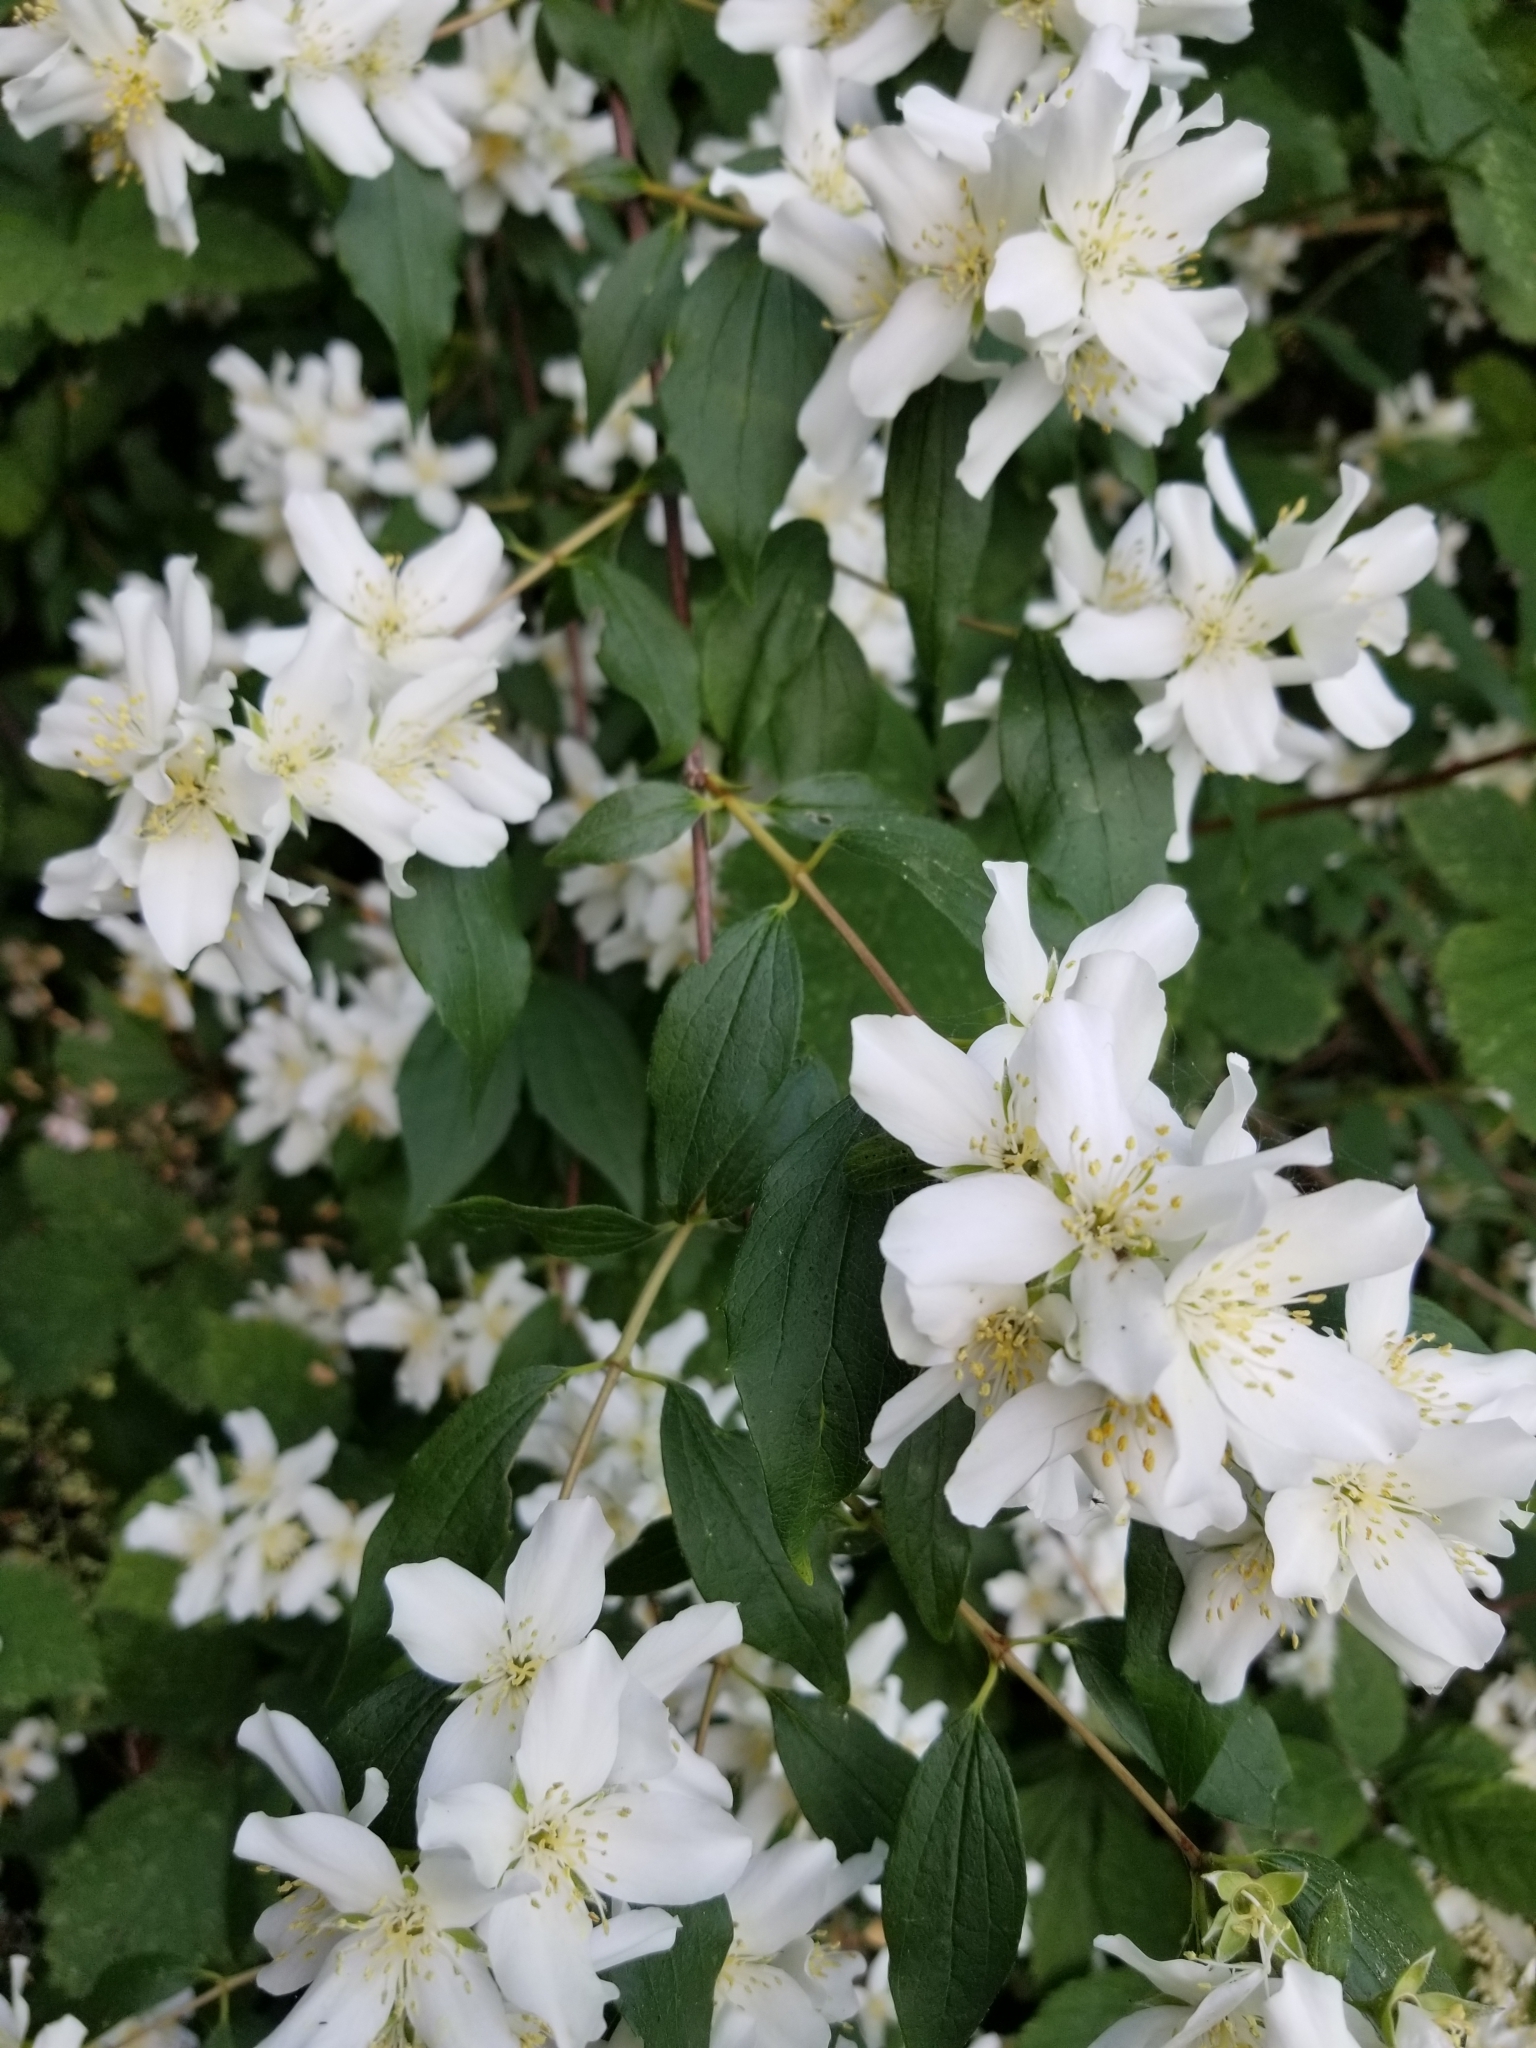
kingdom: Plantae
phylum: Tracheophyta
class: Magnoliopsida
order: Cornales
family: Hydrangeaceae
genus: Philadelphus
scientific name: Philadelphus lewisii
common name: Lewis's mock orange
